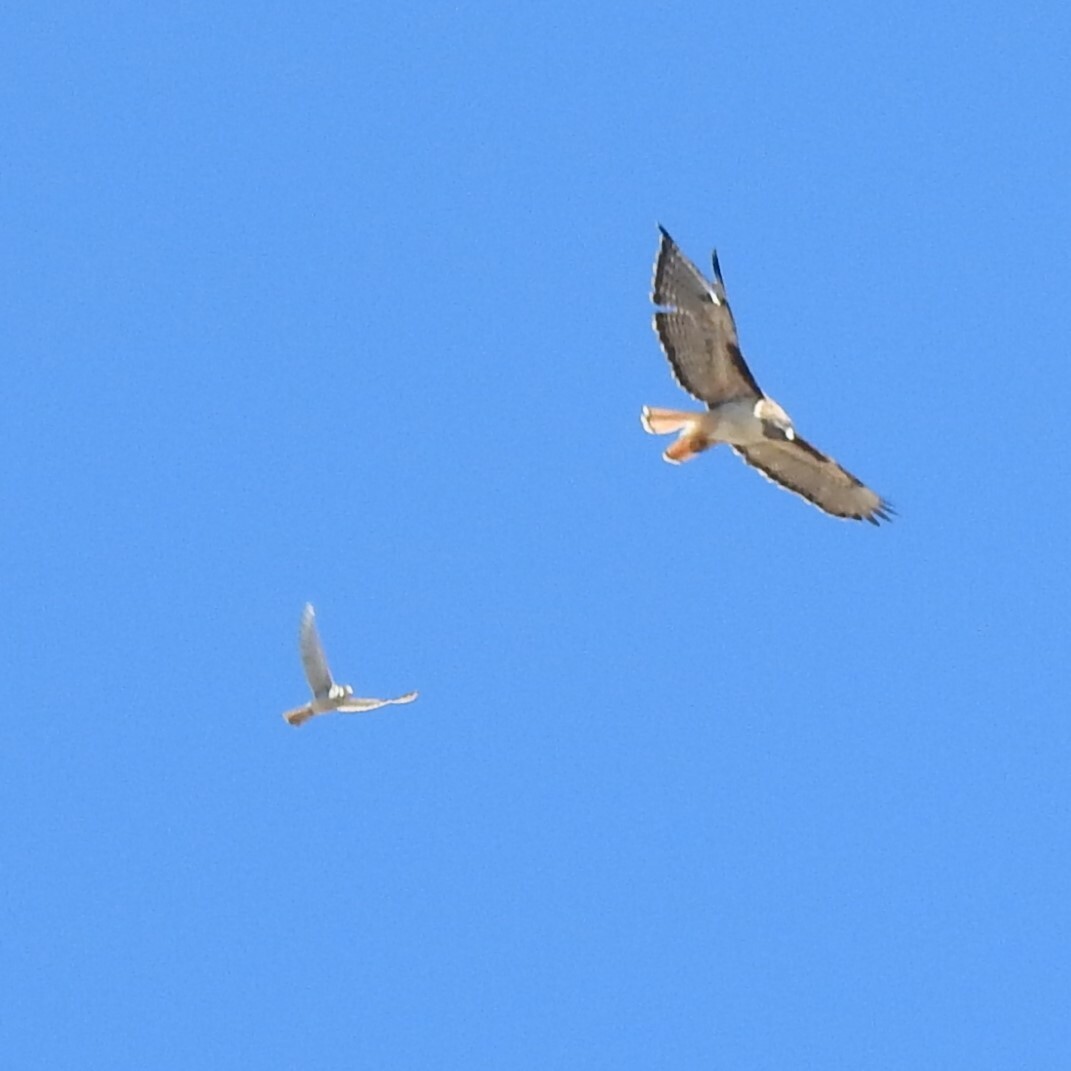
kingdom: Animalia
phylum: Chordata
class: Aves
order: Accipitriformes
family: Accipitridae
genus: Buteo
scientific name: Buteo jamaicensis
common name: Red-tailed hawk
